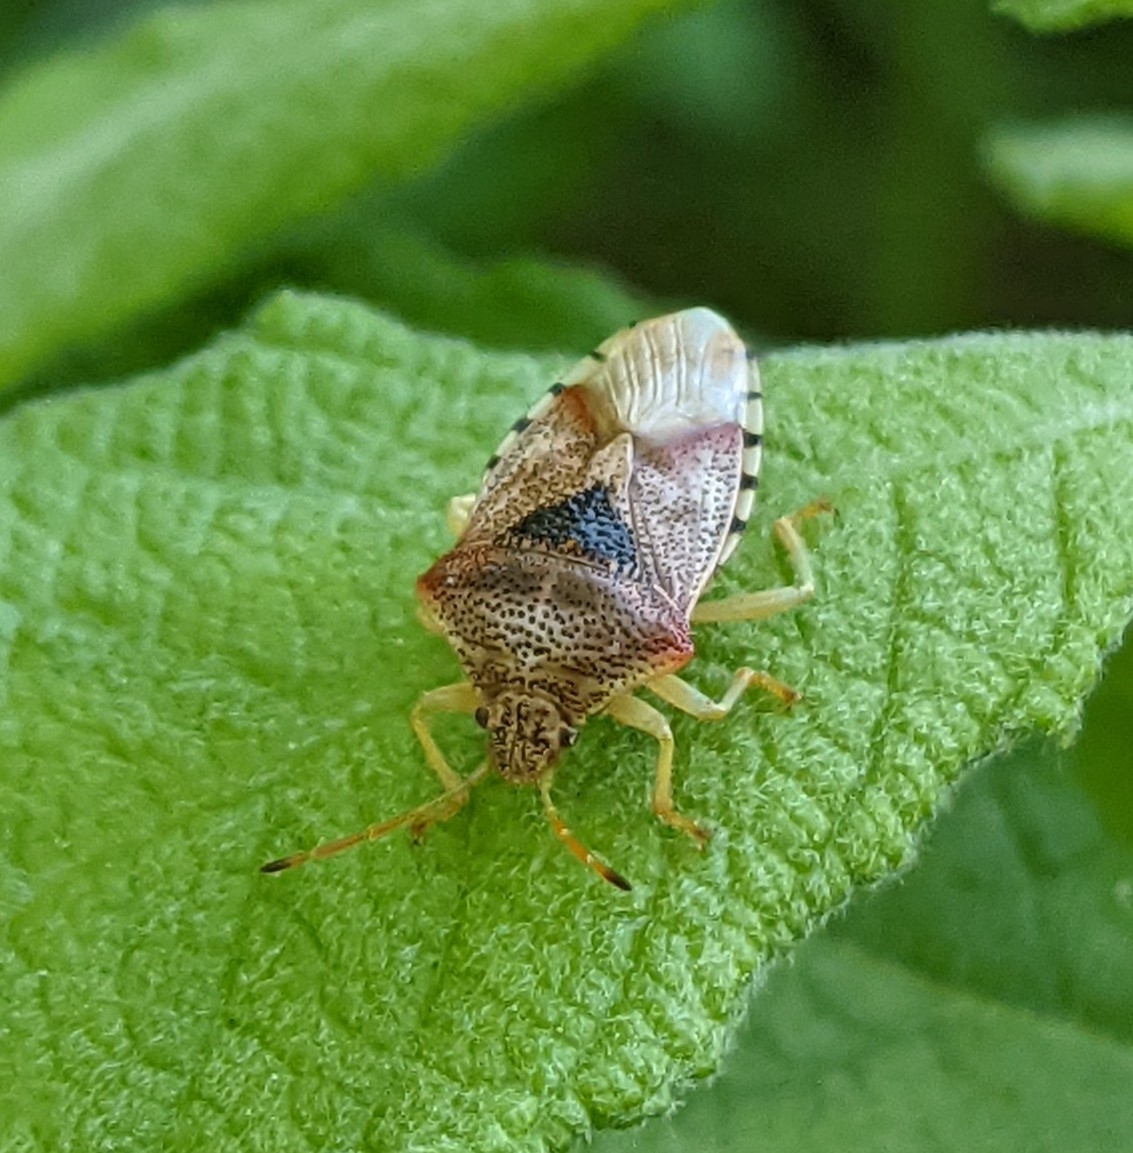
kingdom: Animalia
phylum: Arthropoda
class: Insecta
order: Hemiptera
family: Acanthosomatidae
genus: Elasmucha
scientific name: Elasmucha grisea
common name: Parent bug
